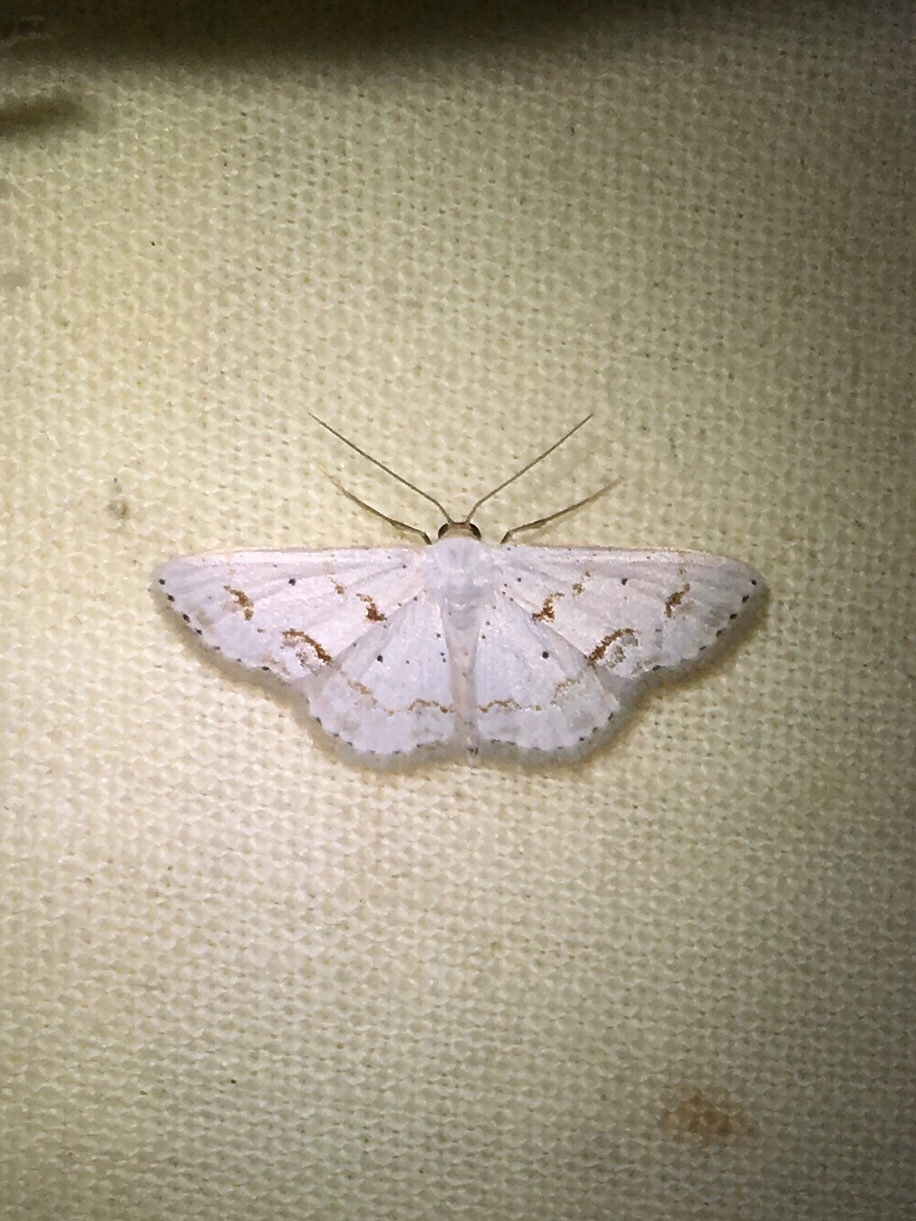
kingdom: Animalia
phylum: Arthropoda
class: Insecta
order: Lepidoptera
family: Geometridae
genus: Scopula
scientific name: Scopula lautaria
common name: Small frosted wave moth
